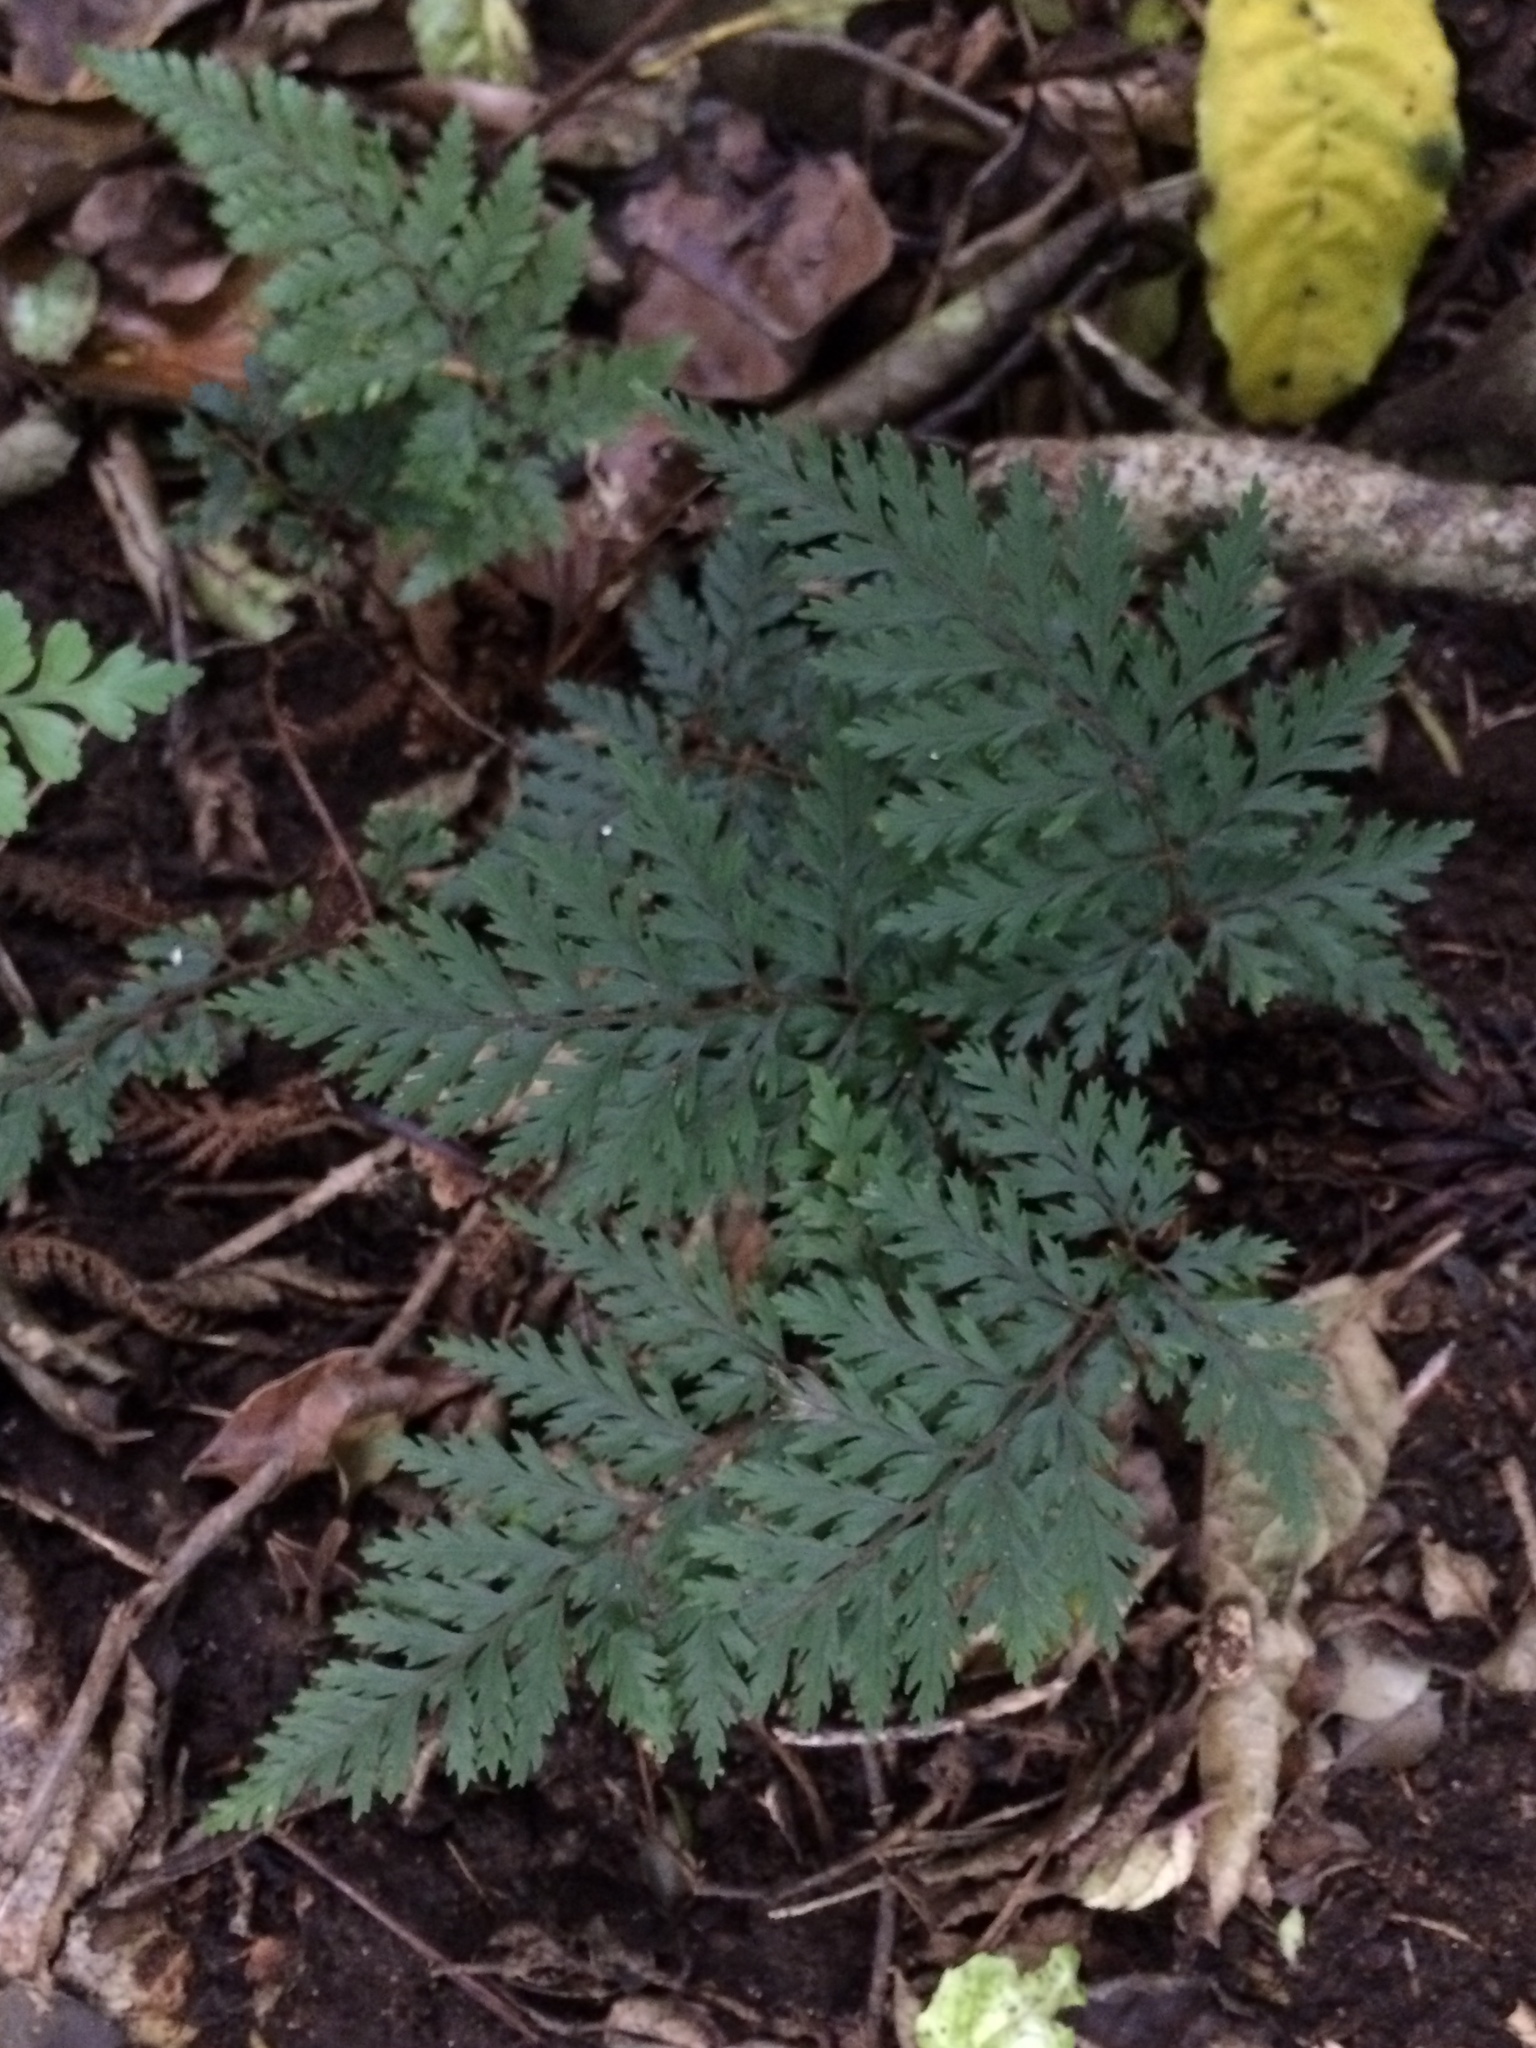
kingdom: Plantae
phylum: Tracheophyta
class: Polypodiopsida
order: Polypodiales
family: Dryopteridaceae
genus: Parapolystichum
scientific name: Parapolystichum glabellum
